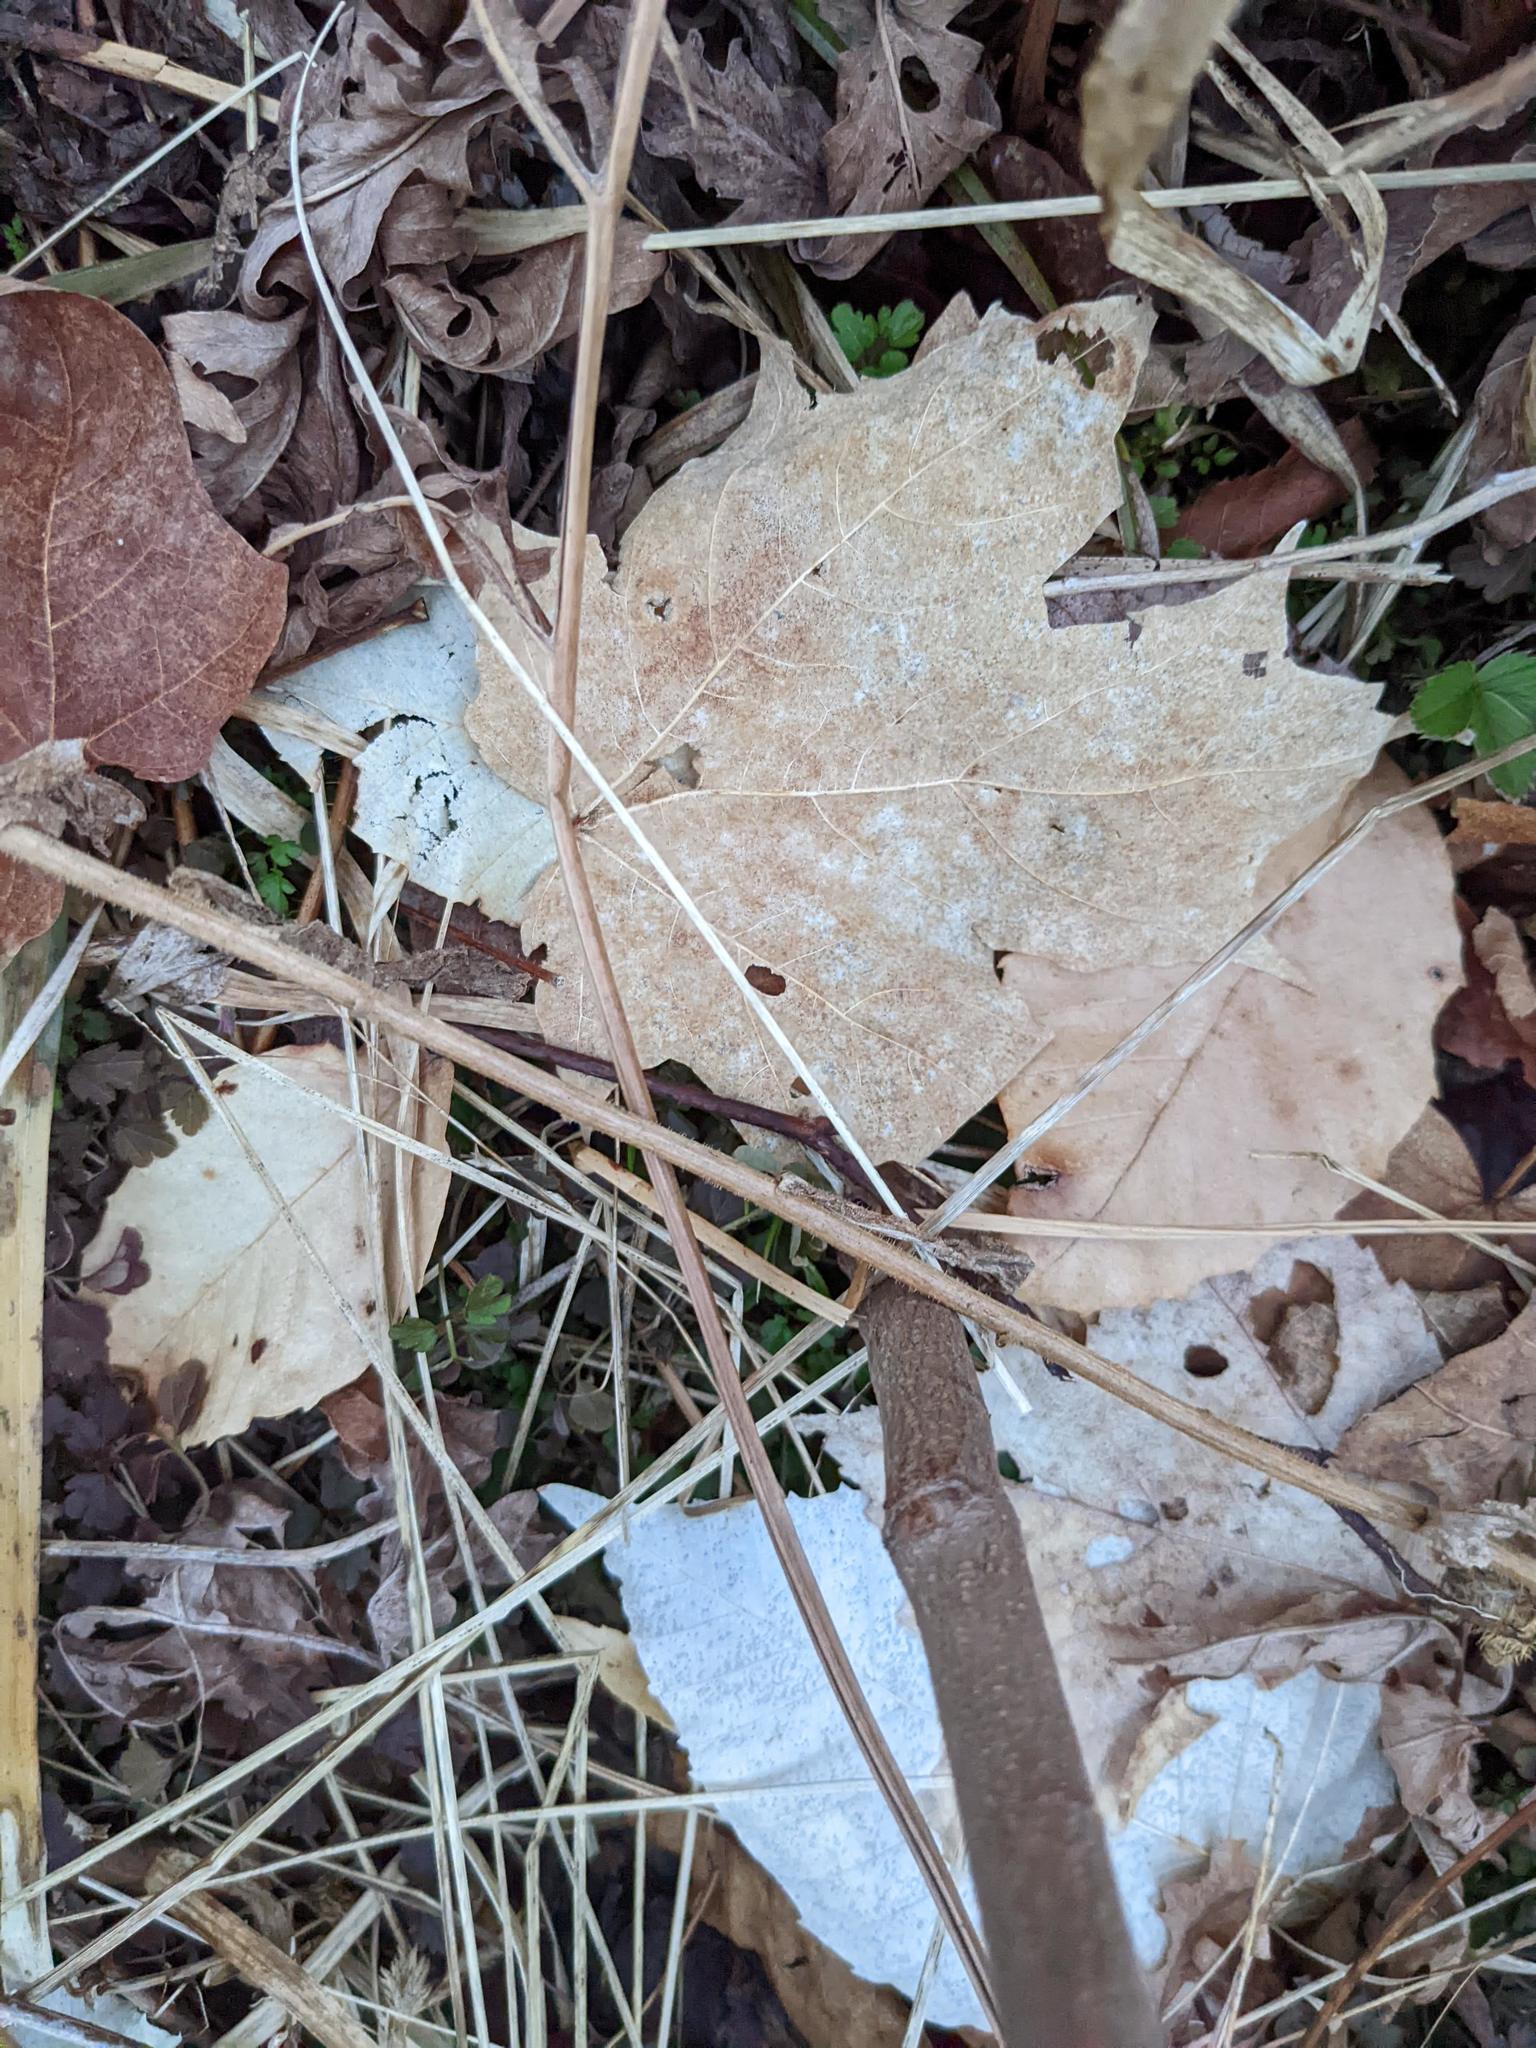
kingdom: Plantae
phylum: Tracheophyta
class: Magnoliopsida
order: Sapindales
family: Sapindaceae
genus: Acer
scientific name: Acer saccharum
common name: Sugar maple
